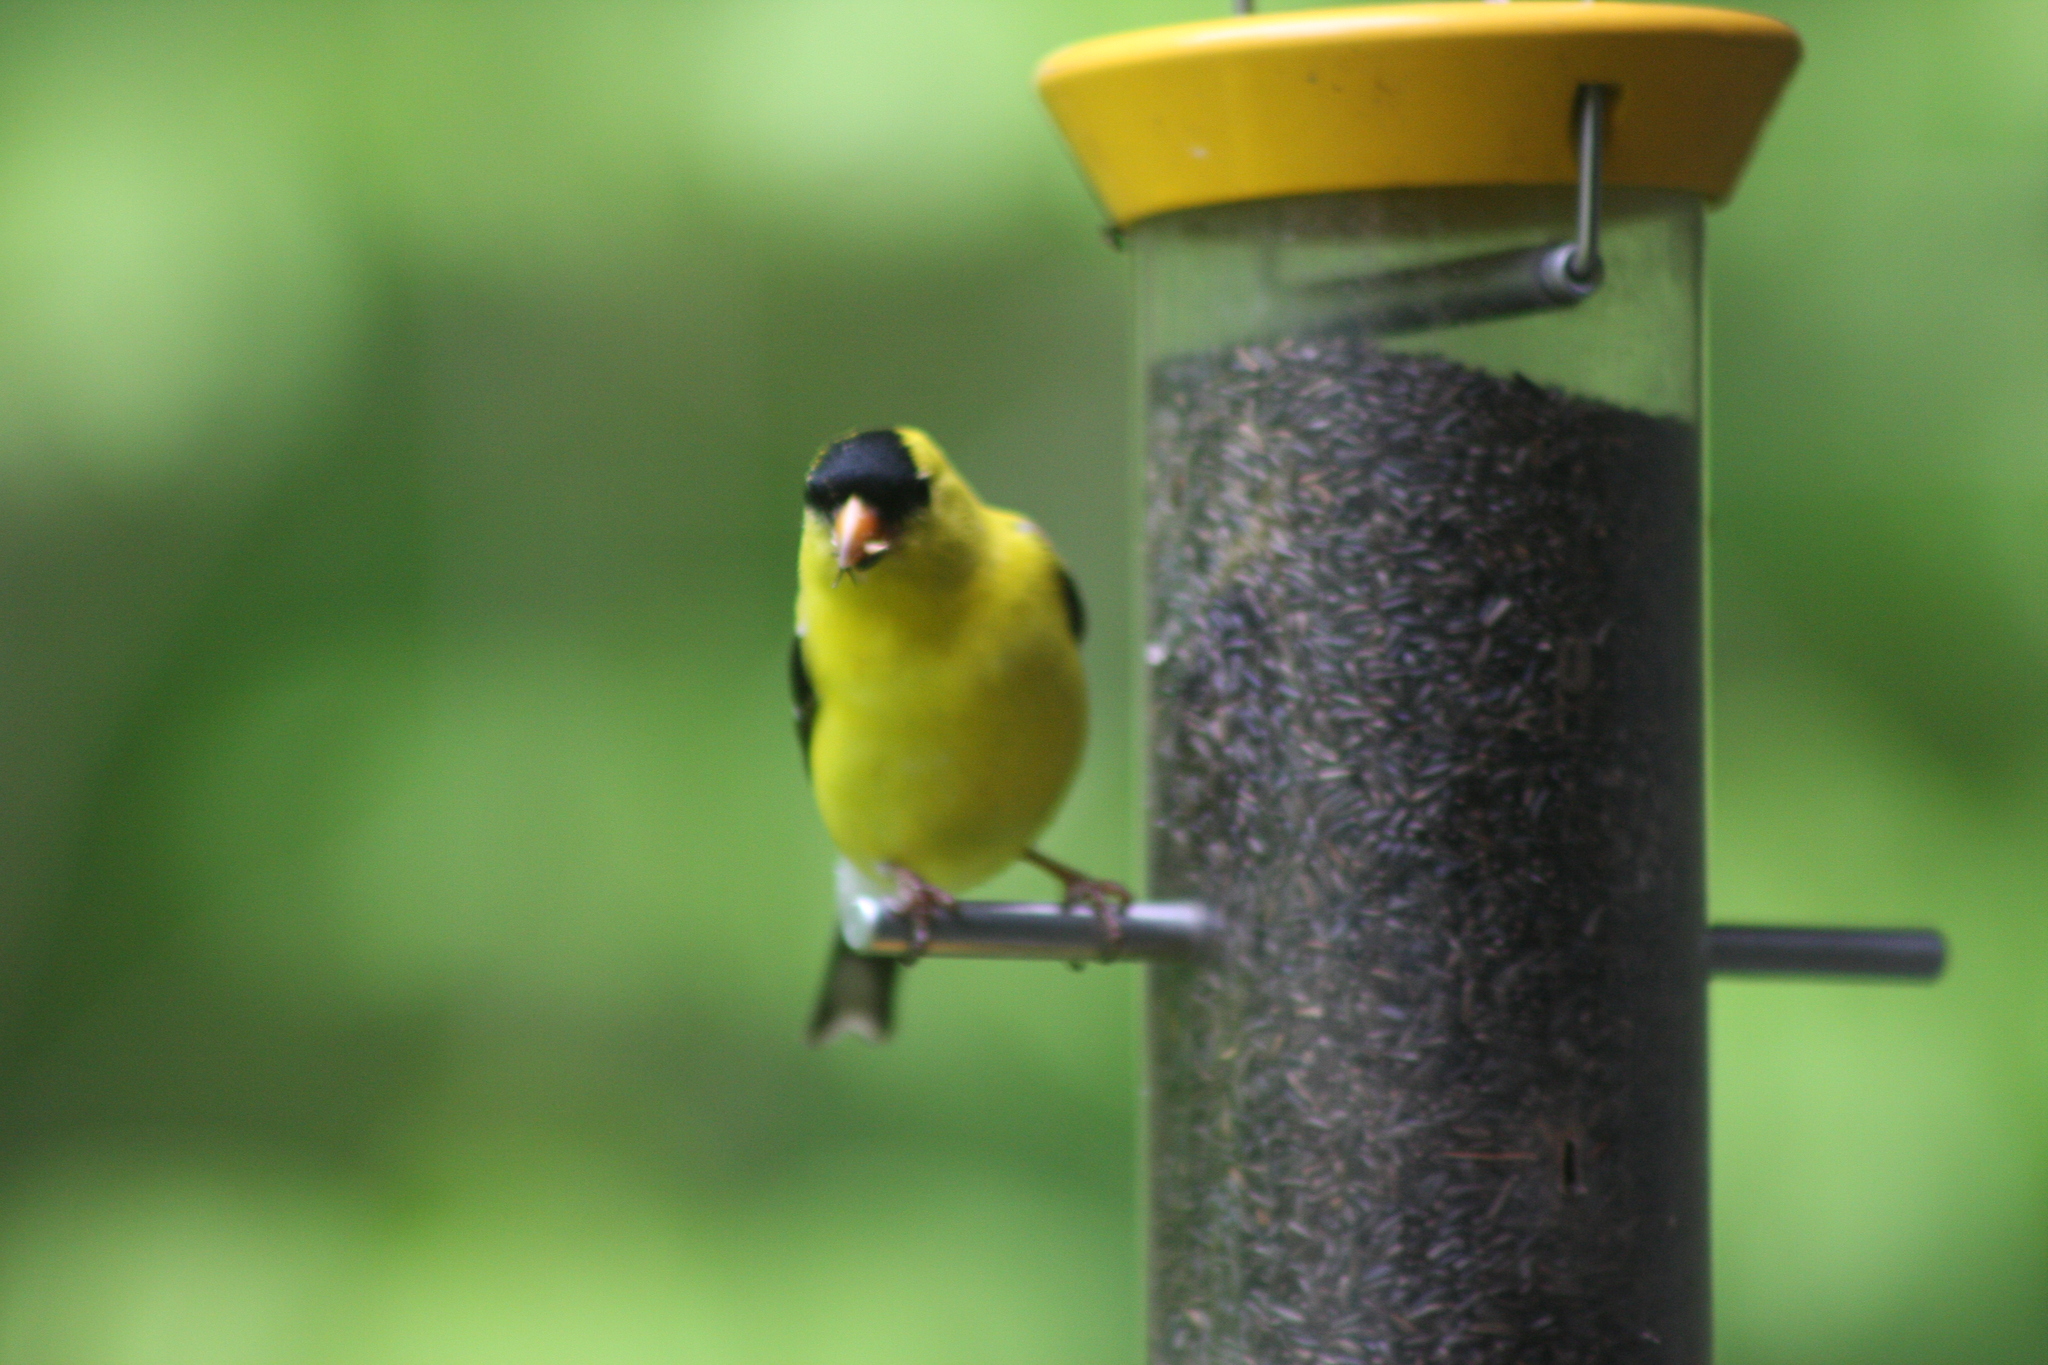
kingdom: Animalia
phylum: Chordata
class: Aves
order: Passeriformes
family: Fringillidae
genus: Spinus
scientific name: Spinus tristis
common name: American goldfinch
